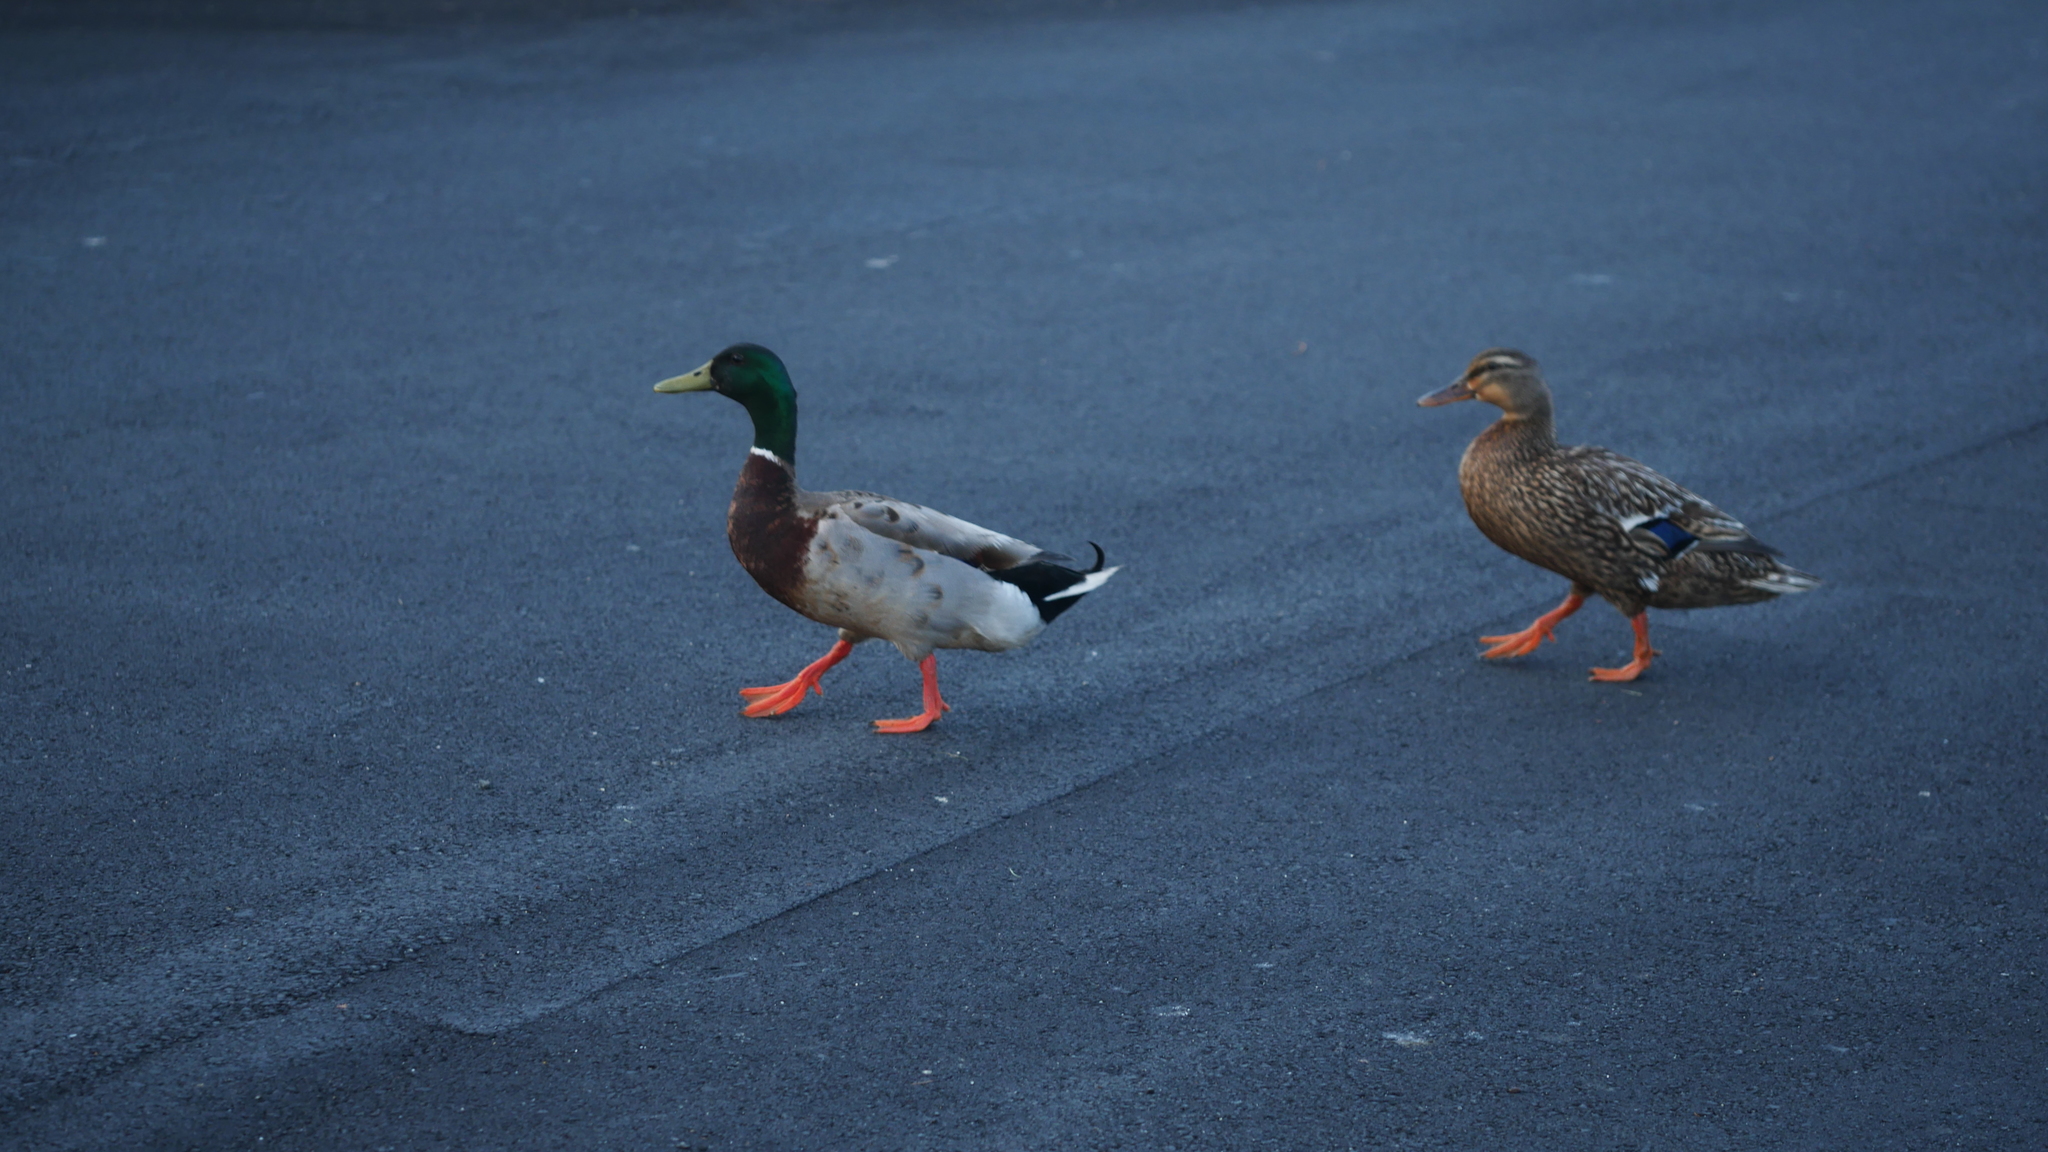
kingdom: Animalia
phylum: Chordata
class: Aves
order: Anseriformes
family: Anatidae
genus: Anas
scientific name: Anas platyrhynchos
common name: Mallard
